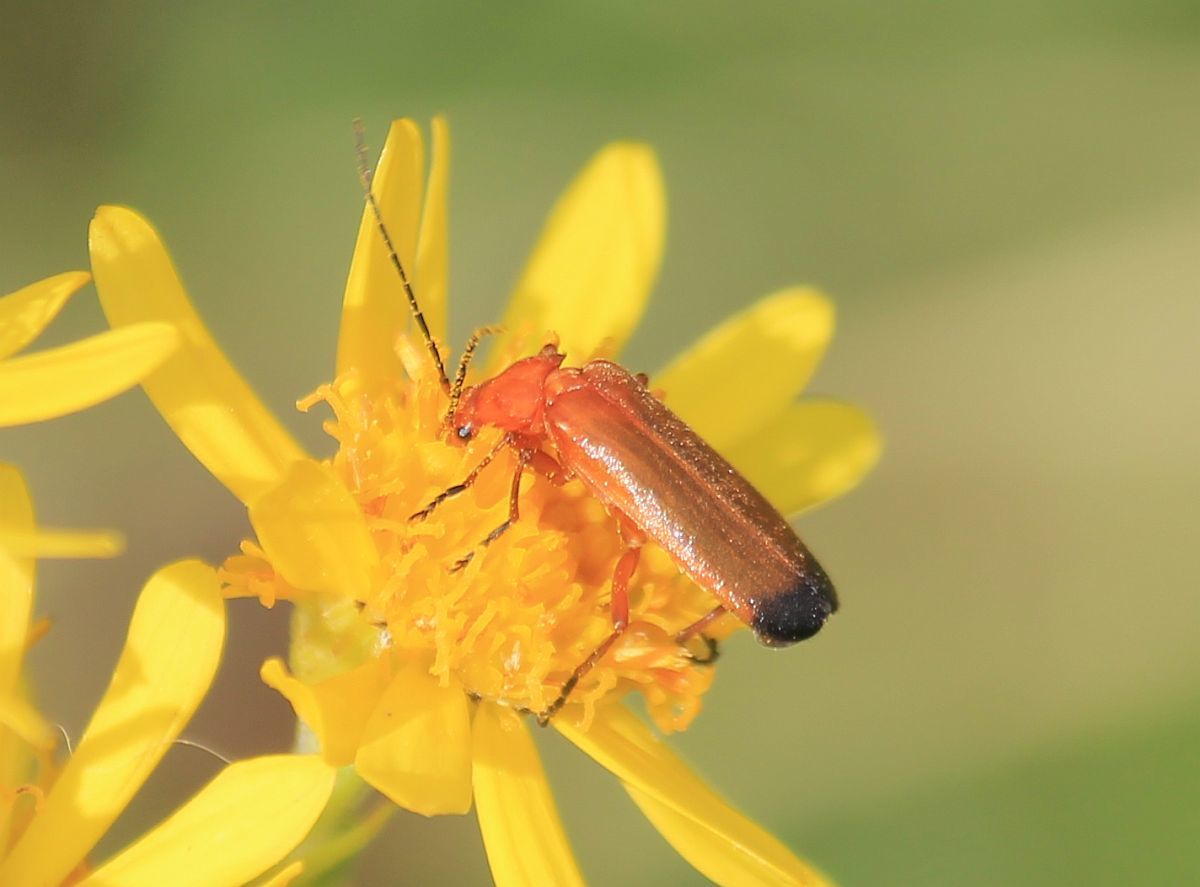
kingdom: Animalia
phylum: Arthropoda
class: Insecta
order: Coleoptera
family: Cantharidae
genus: Rhagonycha
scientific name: Rhagonycha fulva
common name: Common red soldier beetle
